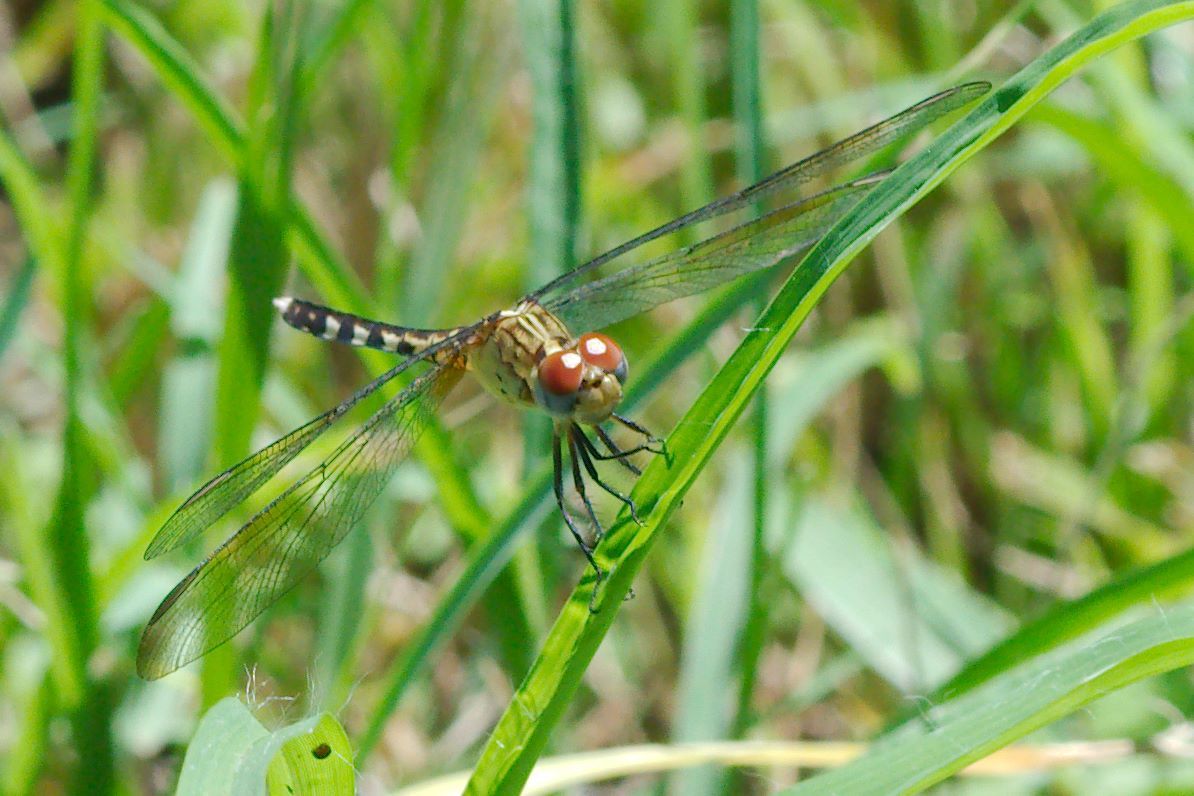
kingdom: Animalia
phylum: Arthropoda
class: Insecta
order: Odonata
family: Libellulidae
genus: Erythrodiplax
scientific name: Erythrodiplax minuscula
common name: Little blue dragonlet
